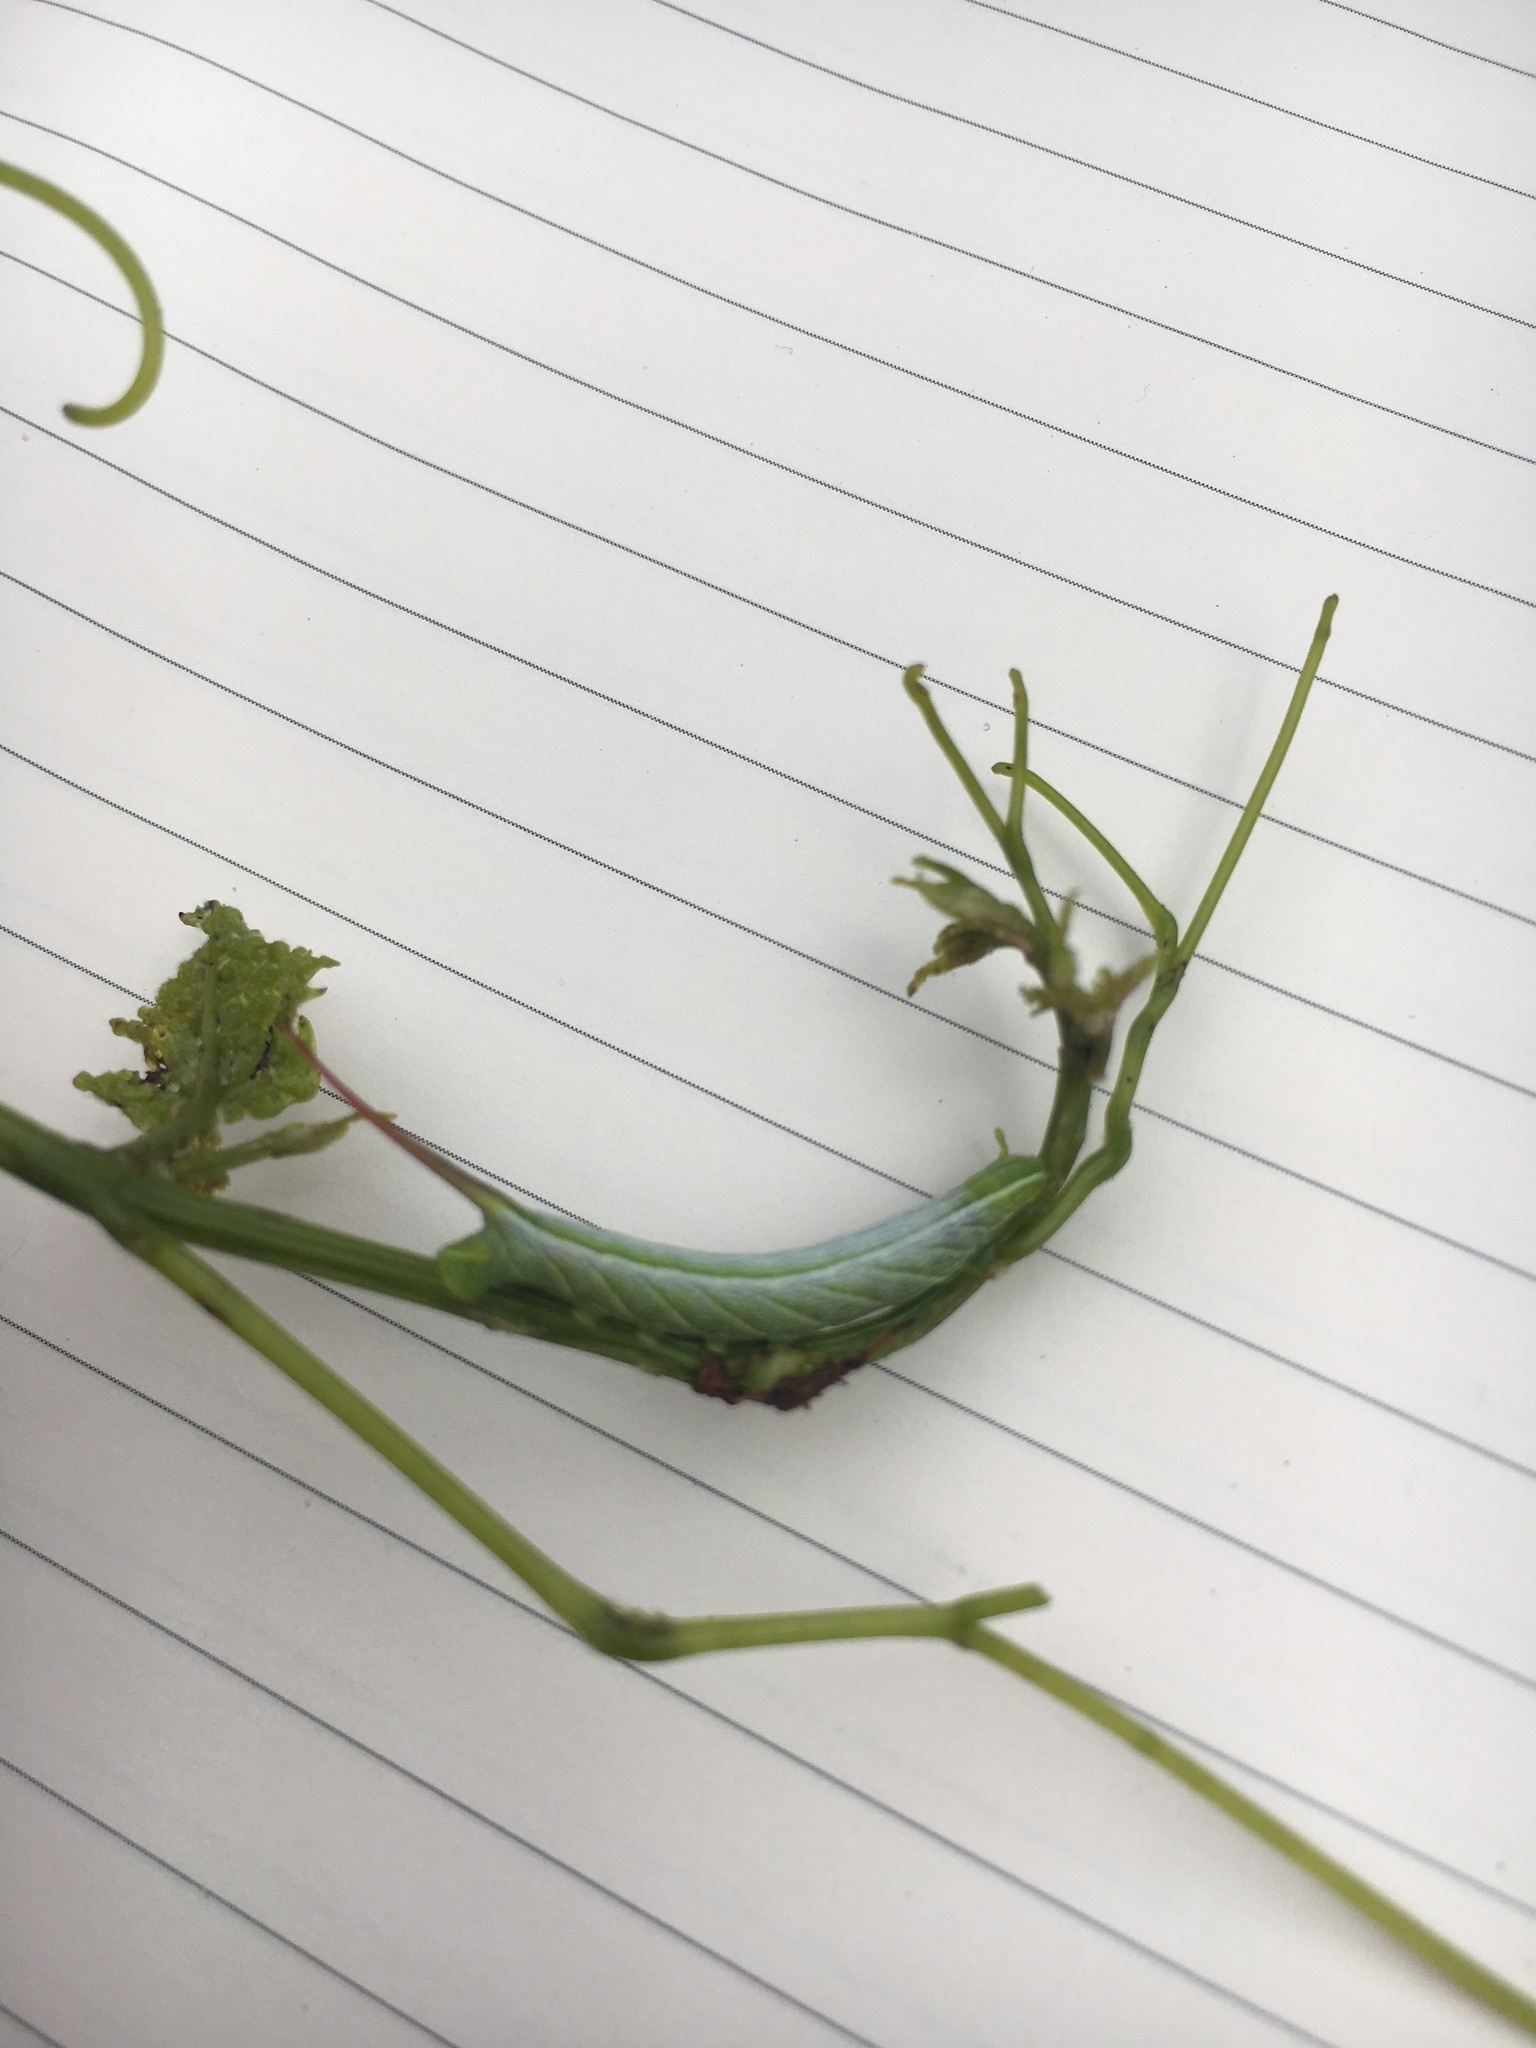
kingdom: Animalia
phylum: Arthropoda
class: Insecta
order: Lepidoptera
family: Sphingidae
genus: Enyo
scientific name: Enyo lugubris
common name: Mournful sphinx
